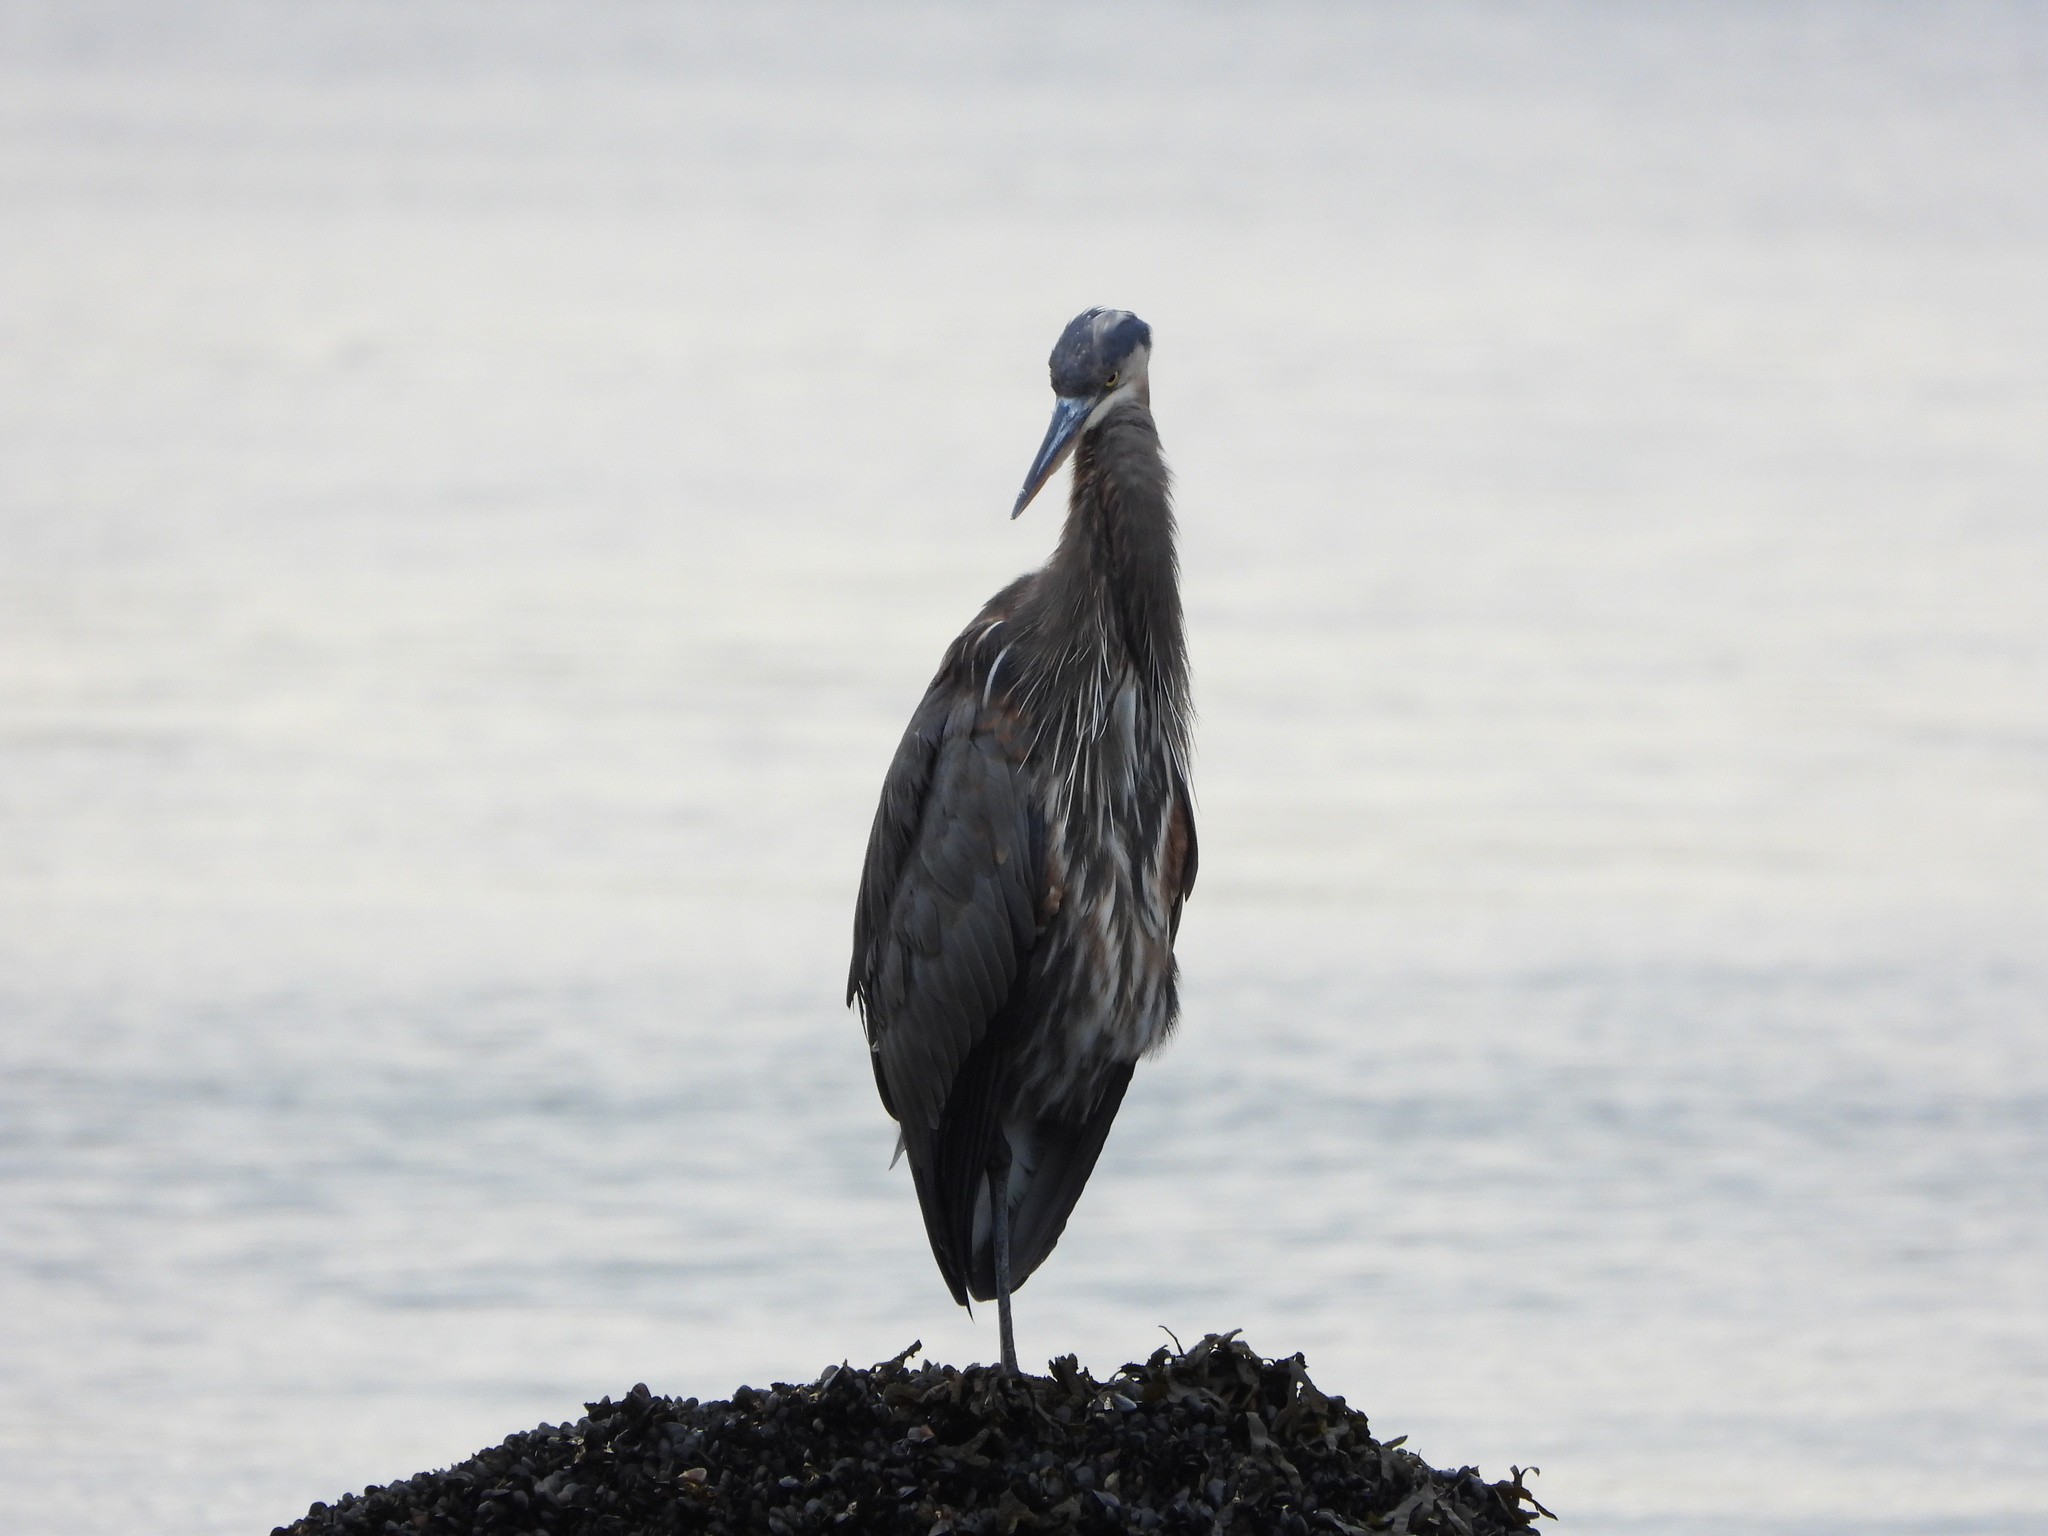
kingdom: Animalia
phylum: Chordata
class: Aves
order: Pelecaniformes
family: Ardeidae
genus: Ardea
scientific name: Ardea herodias
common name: Great blue heron
